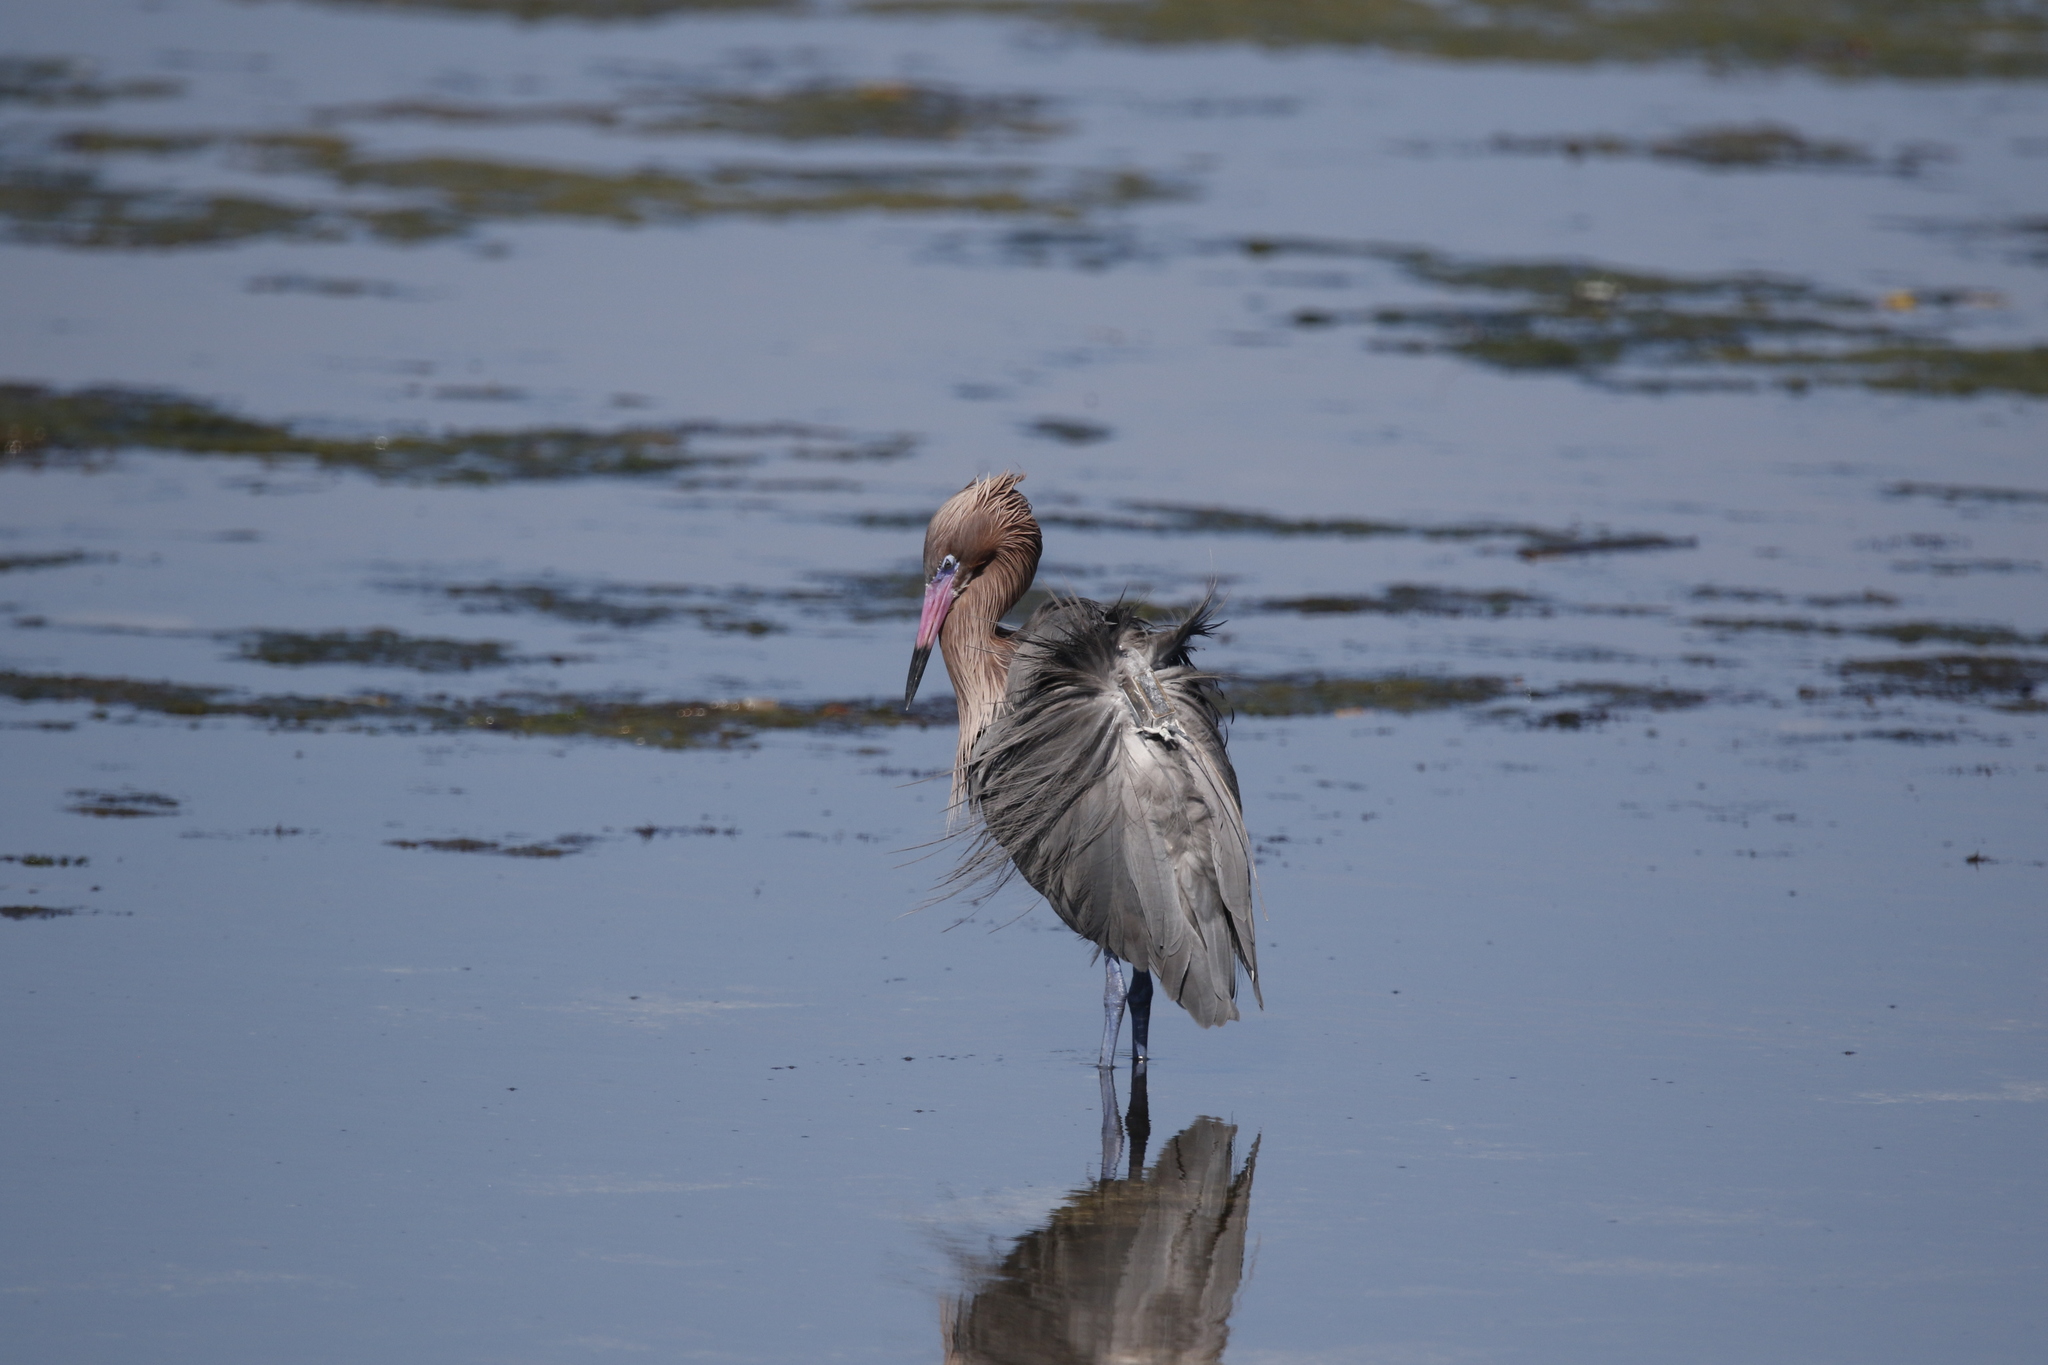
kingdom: Animalia
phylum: Chordata
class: Aves
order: Pelecaniformes
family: Ardeidae
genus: Egretta
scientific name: Egretta rufescens
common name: Reddish egret
